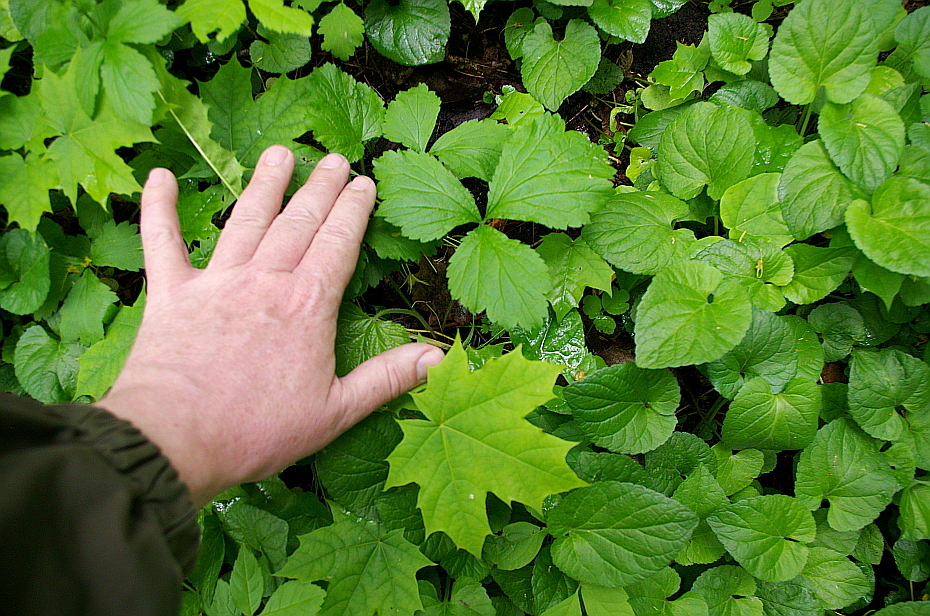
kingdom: Plantae
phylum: Tracheophyta
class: Magnoliopsida
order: Rosales
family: Rosaceae
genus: Geum
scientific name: Geum
